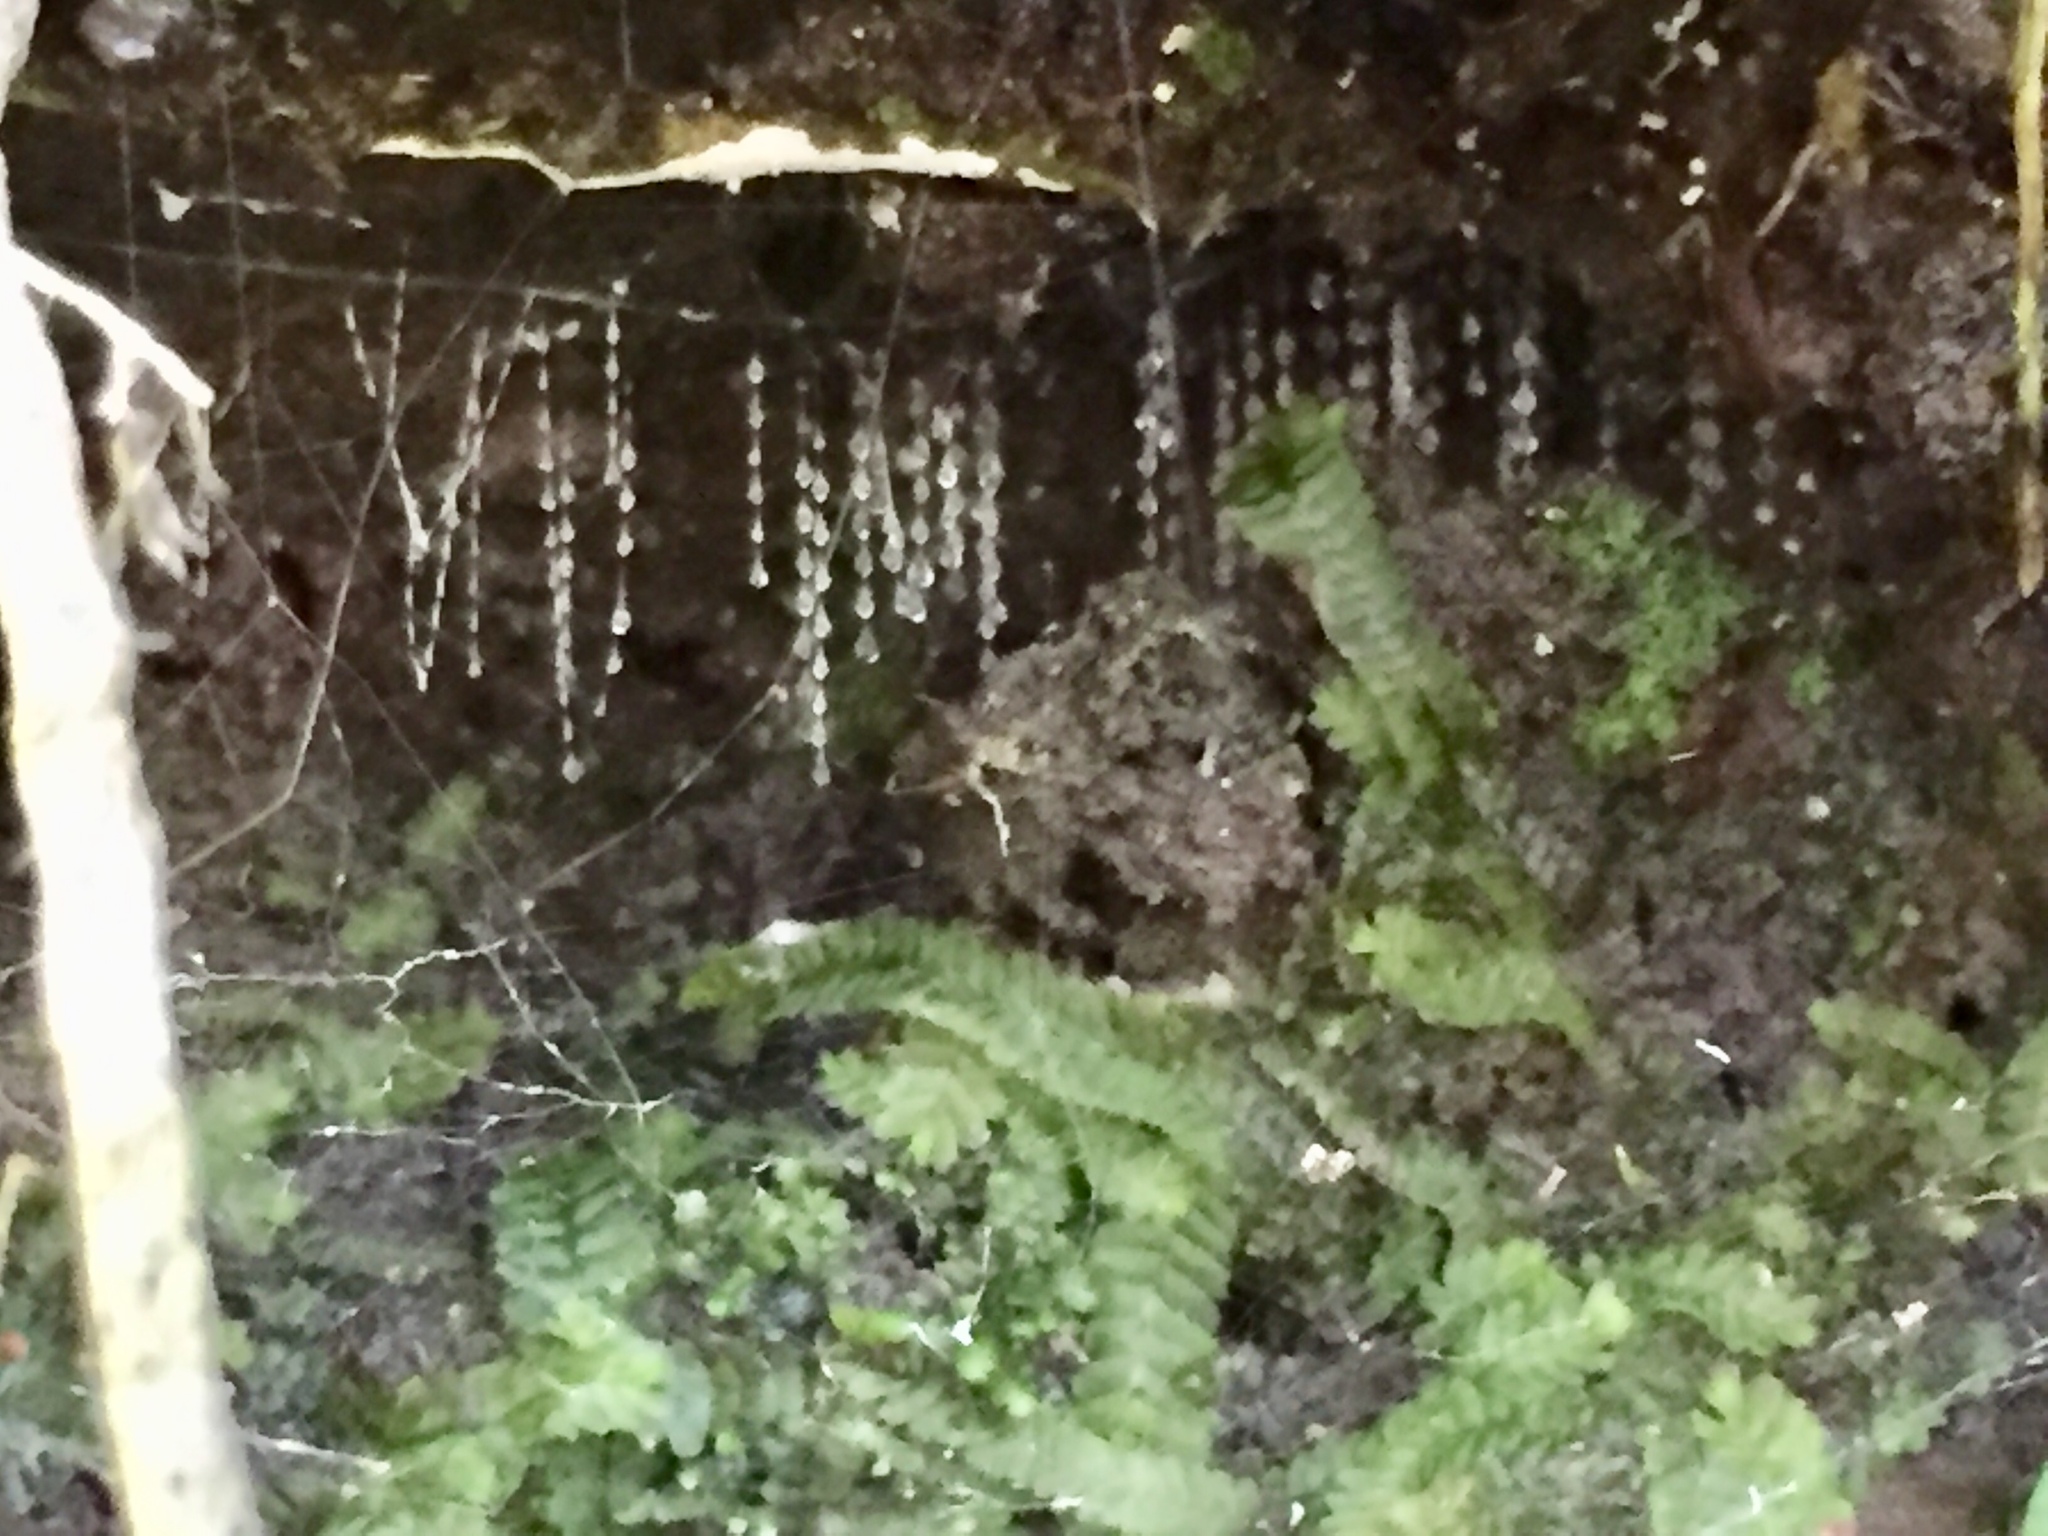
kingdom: Animalia
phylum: Arthropoda
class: Insecta
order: Diptera
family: Keroplatidae
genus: Arachnocampa
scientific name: Arachnocampa luminosa
